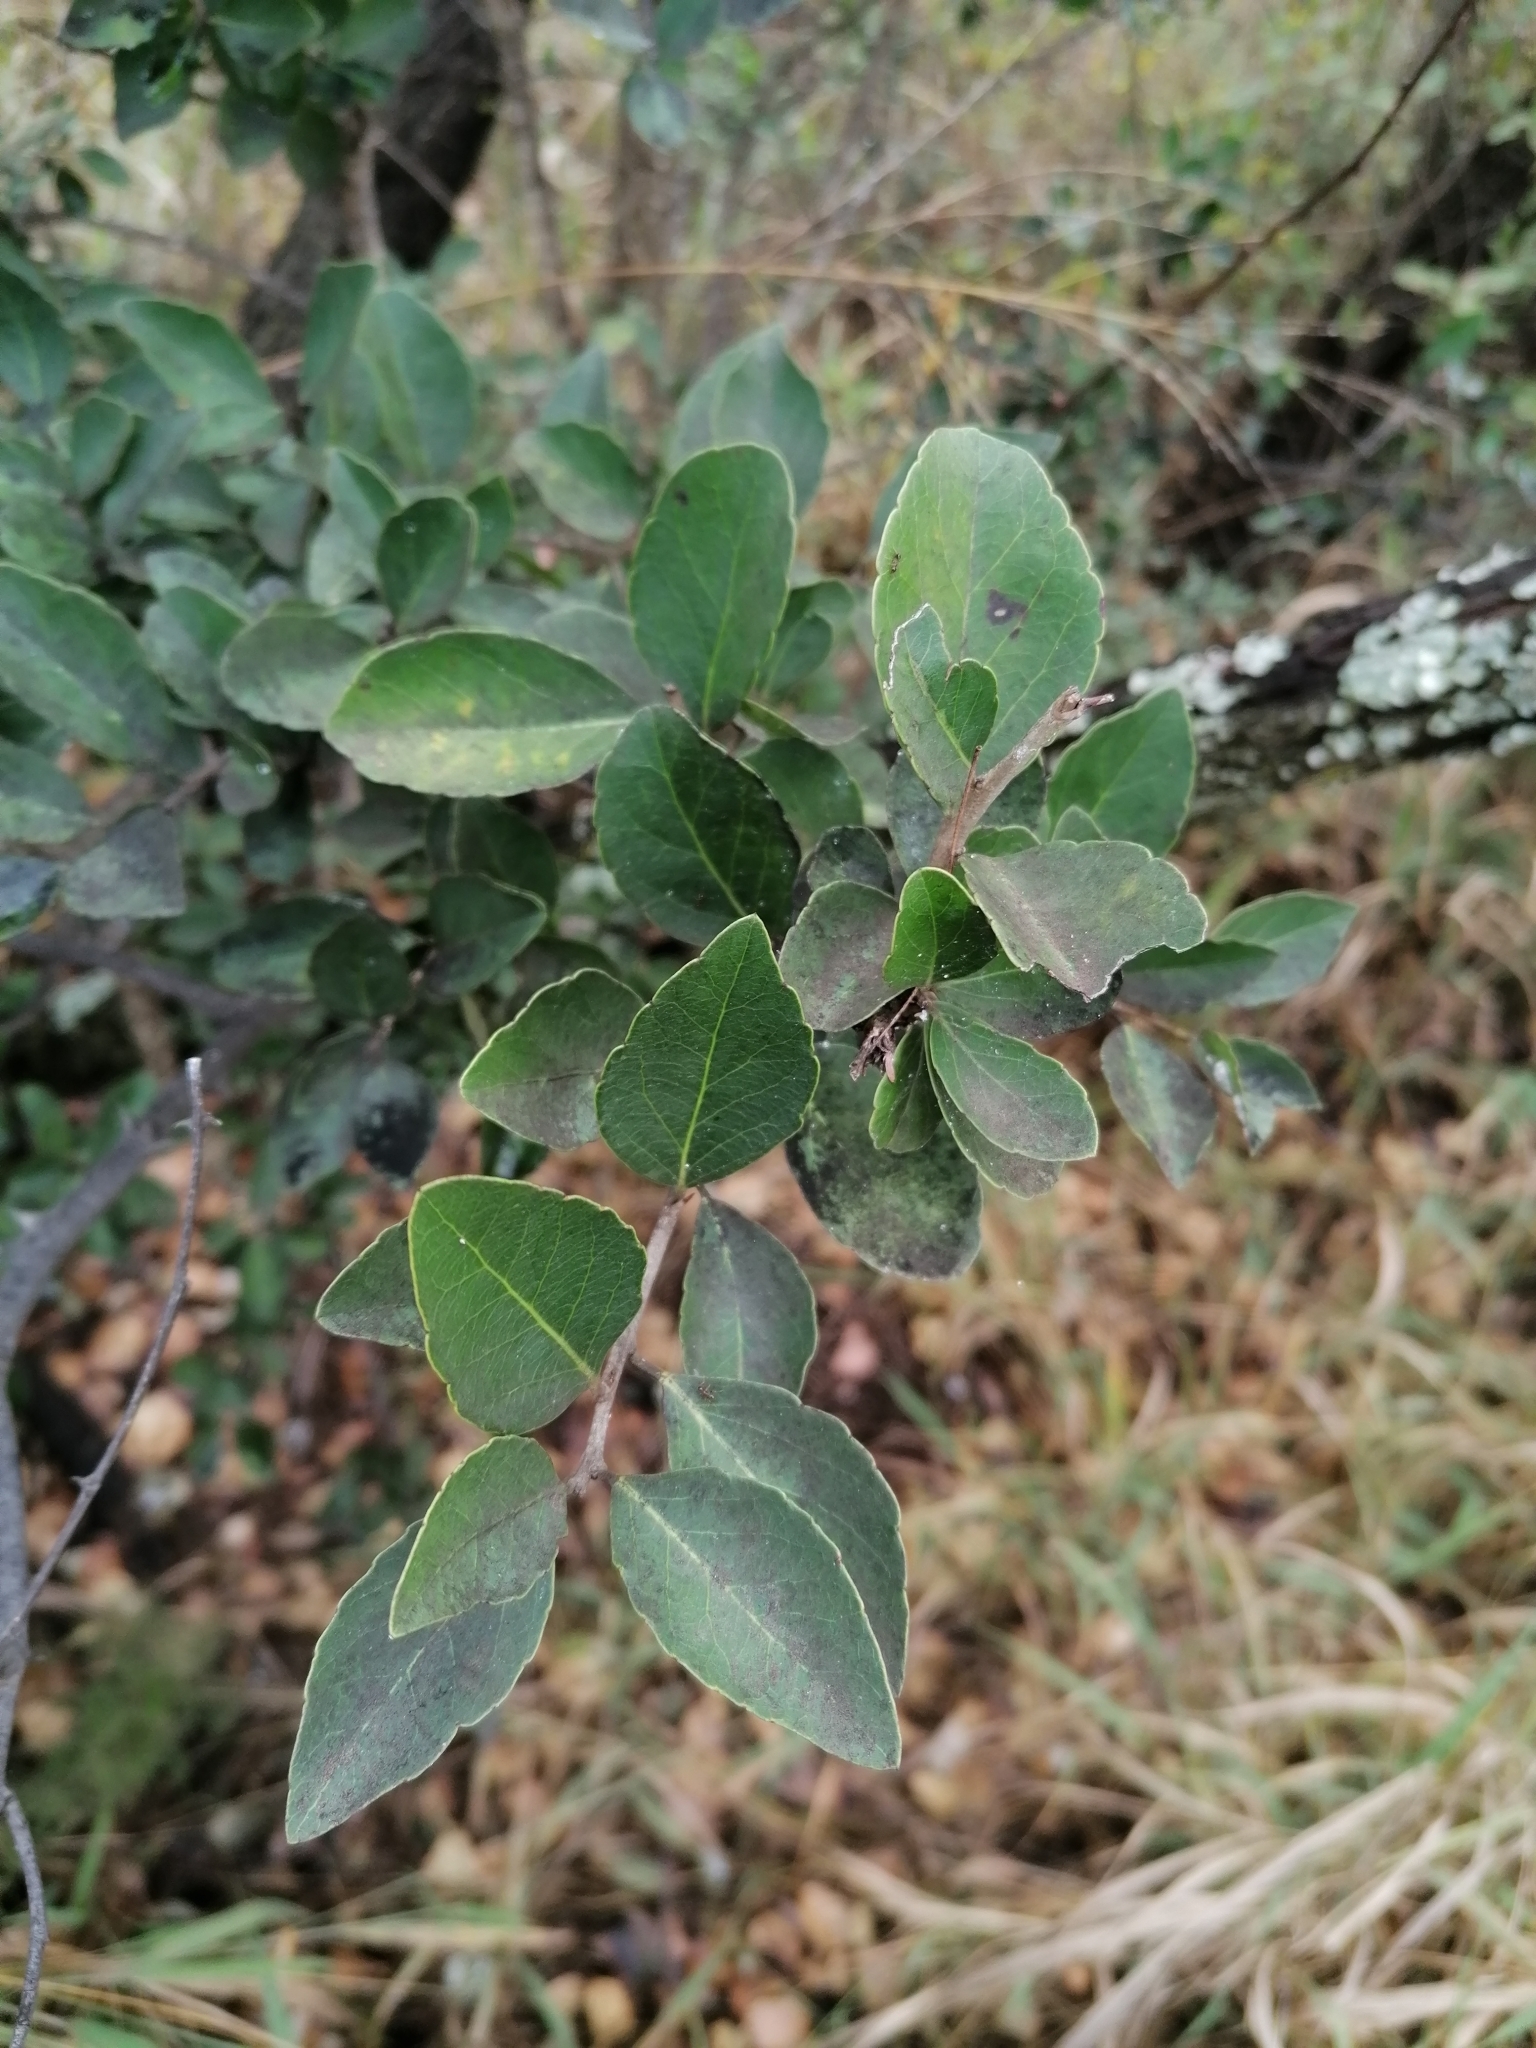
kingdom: Plantae
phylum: Tracheophyta
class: Magnoliopsida
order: Malpighiales
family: Salicaceae
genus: Scolopia
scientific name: Scolopia zeyheri
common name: Thorn pear
